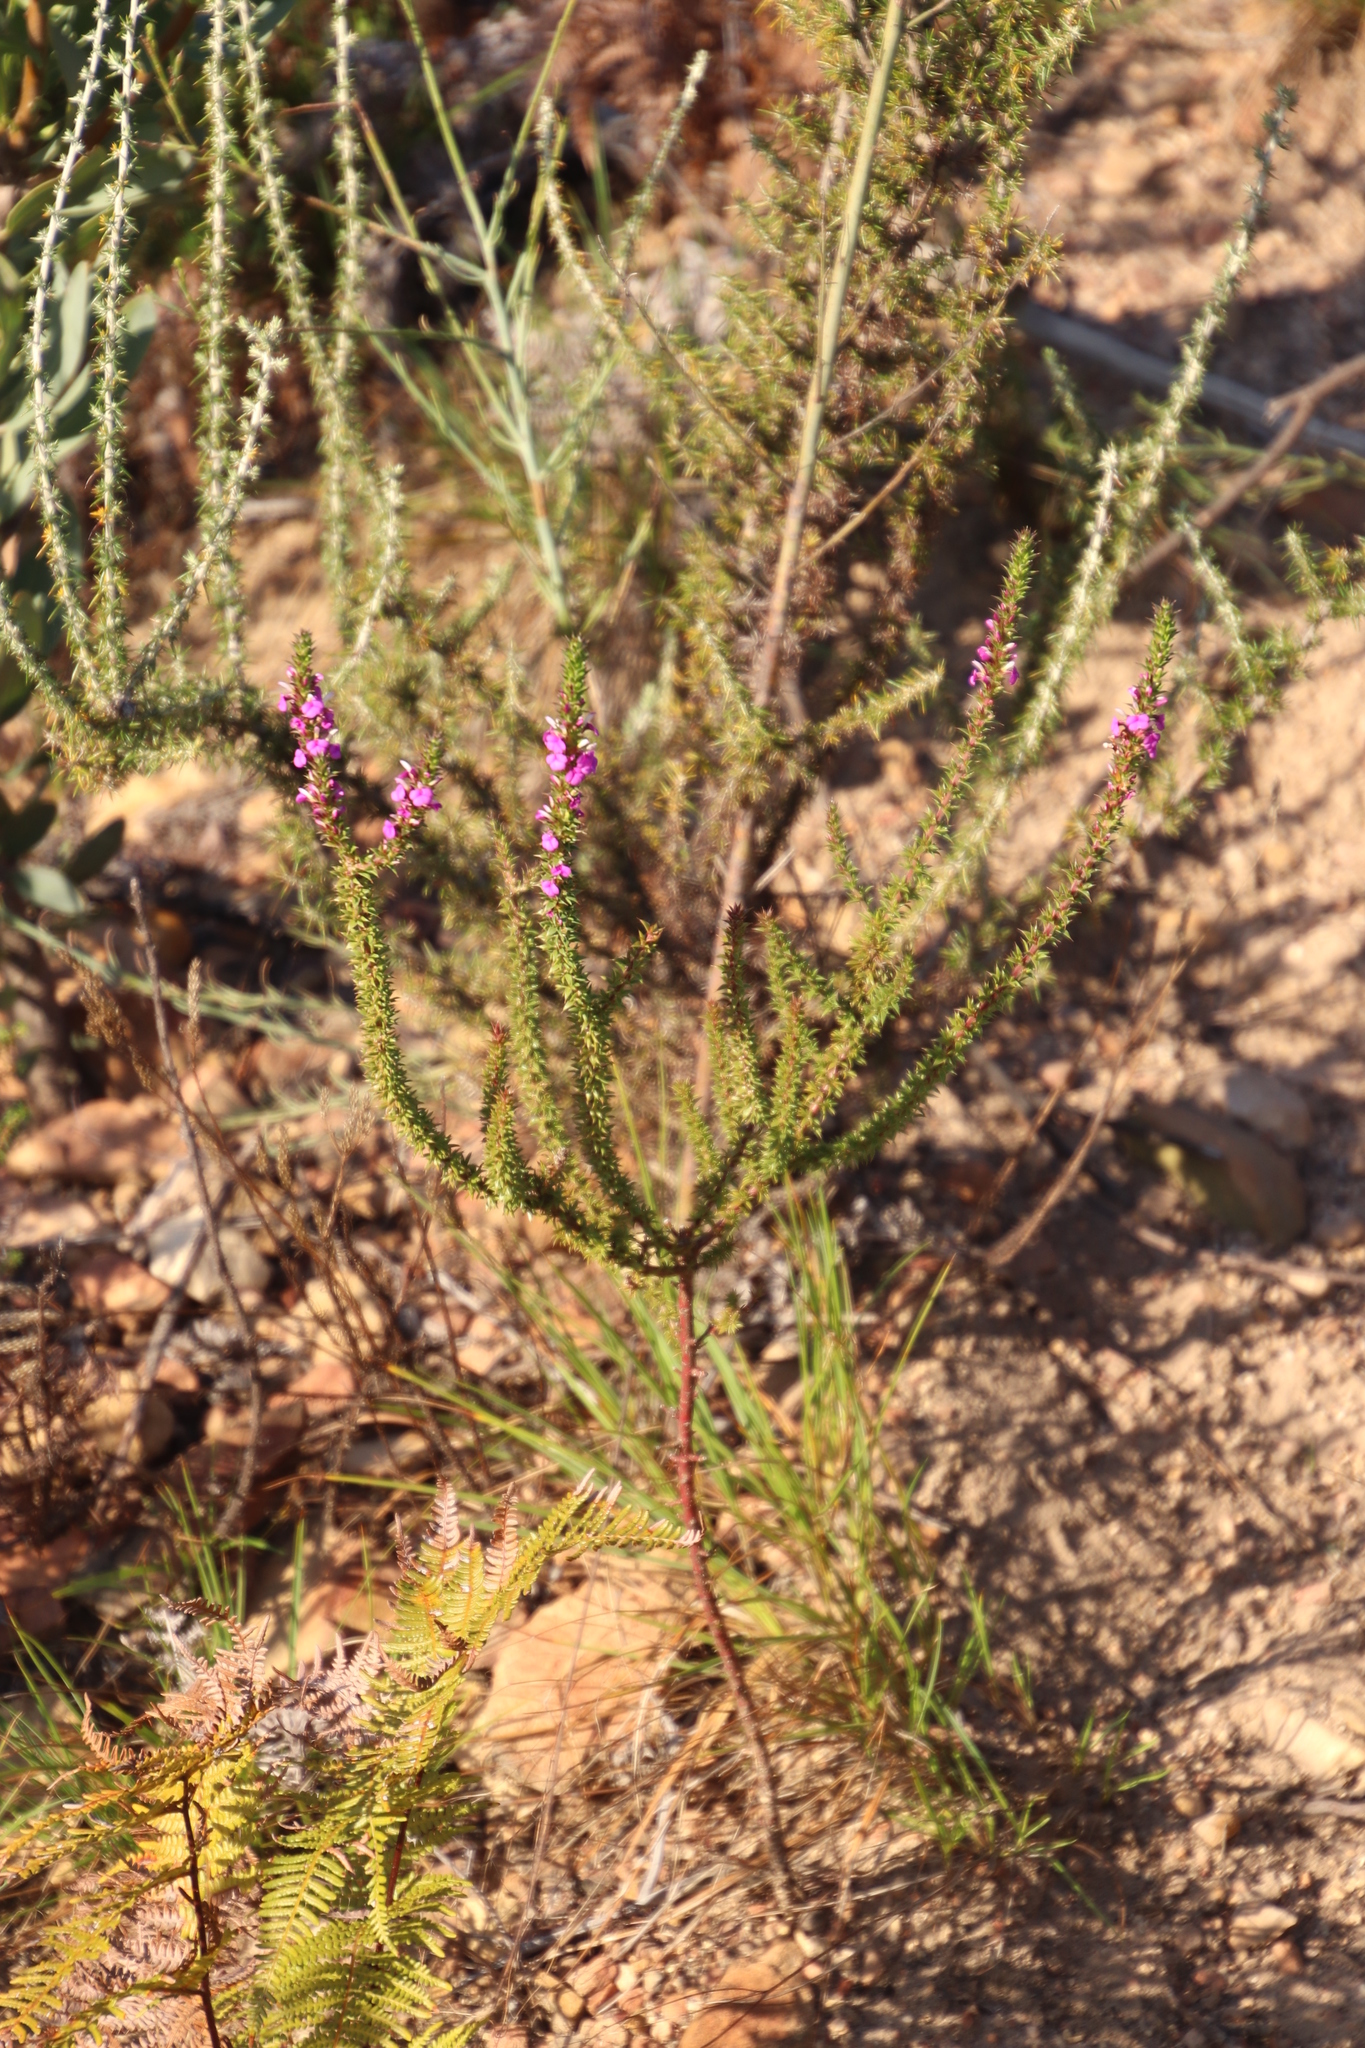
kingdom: Plantae
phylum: Tracheophyta
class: Magnoliopsida
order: Fabales
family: Polygalaceae
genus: Muraltia
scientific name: Muraltia heisteria
